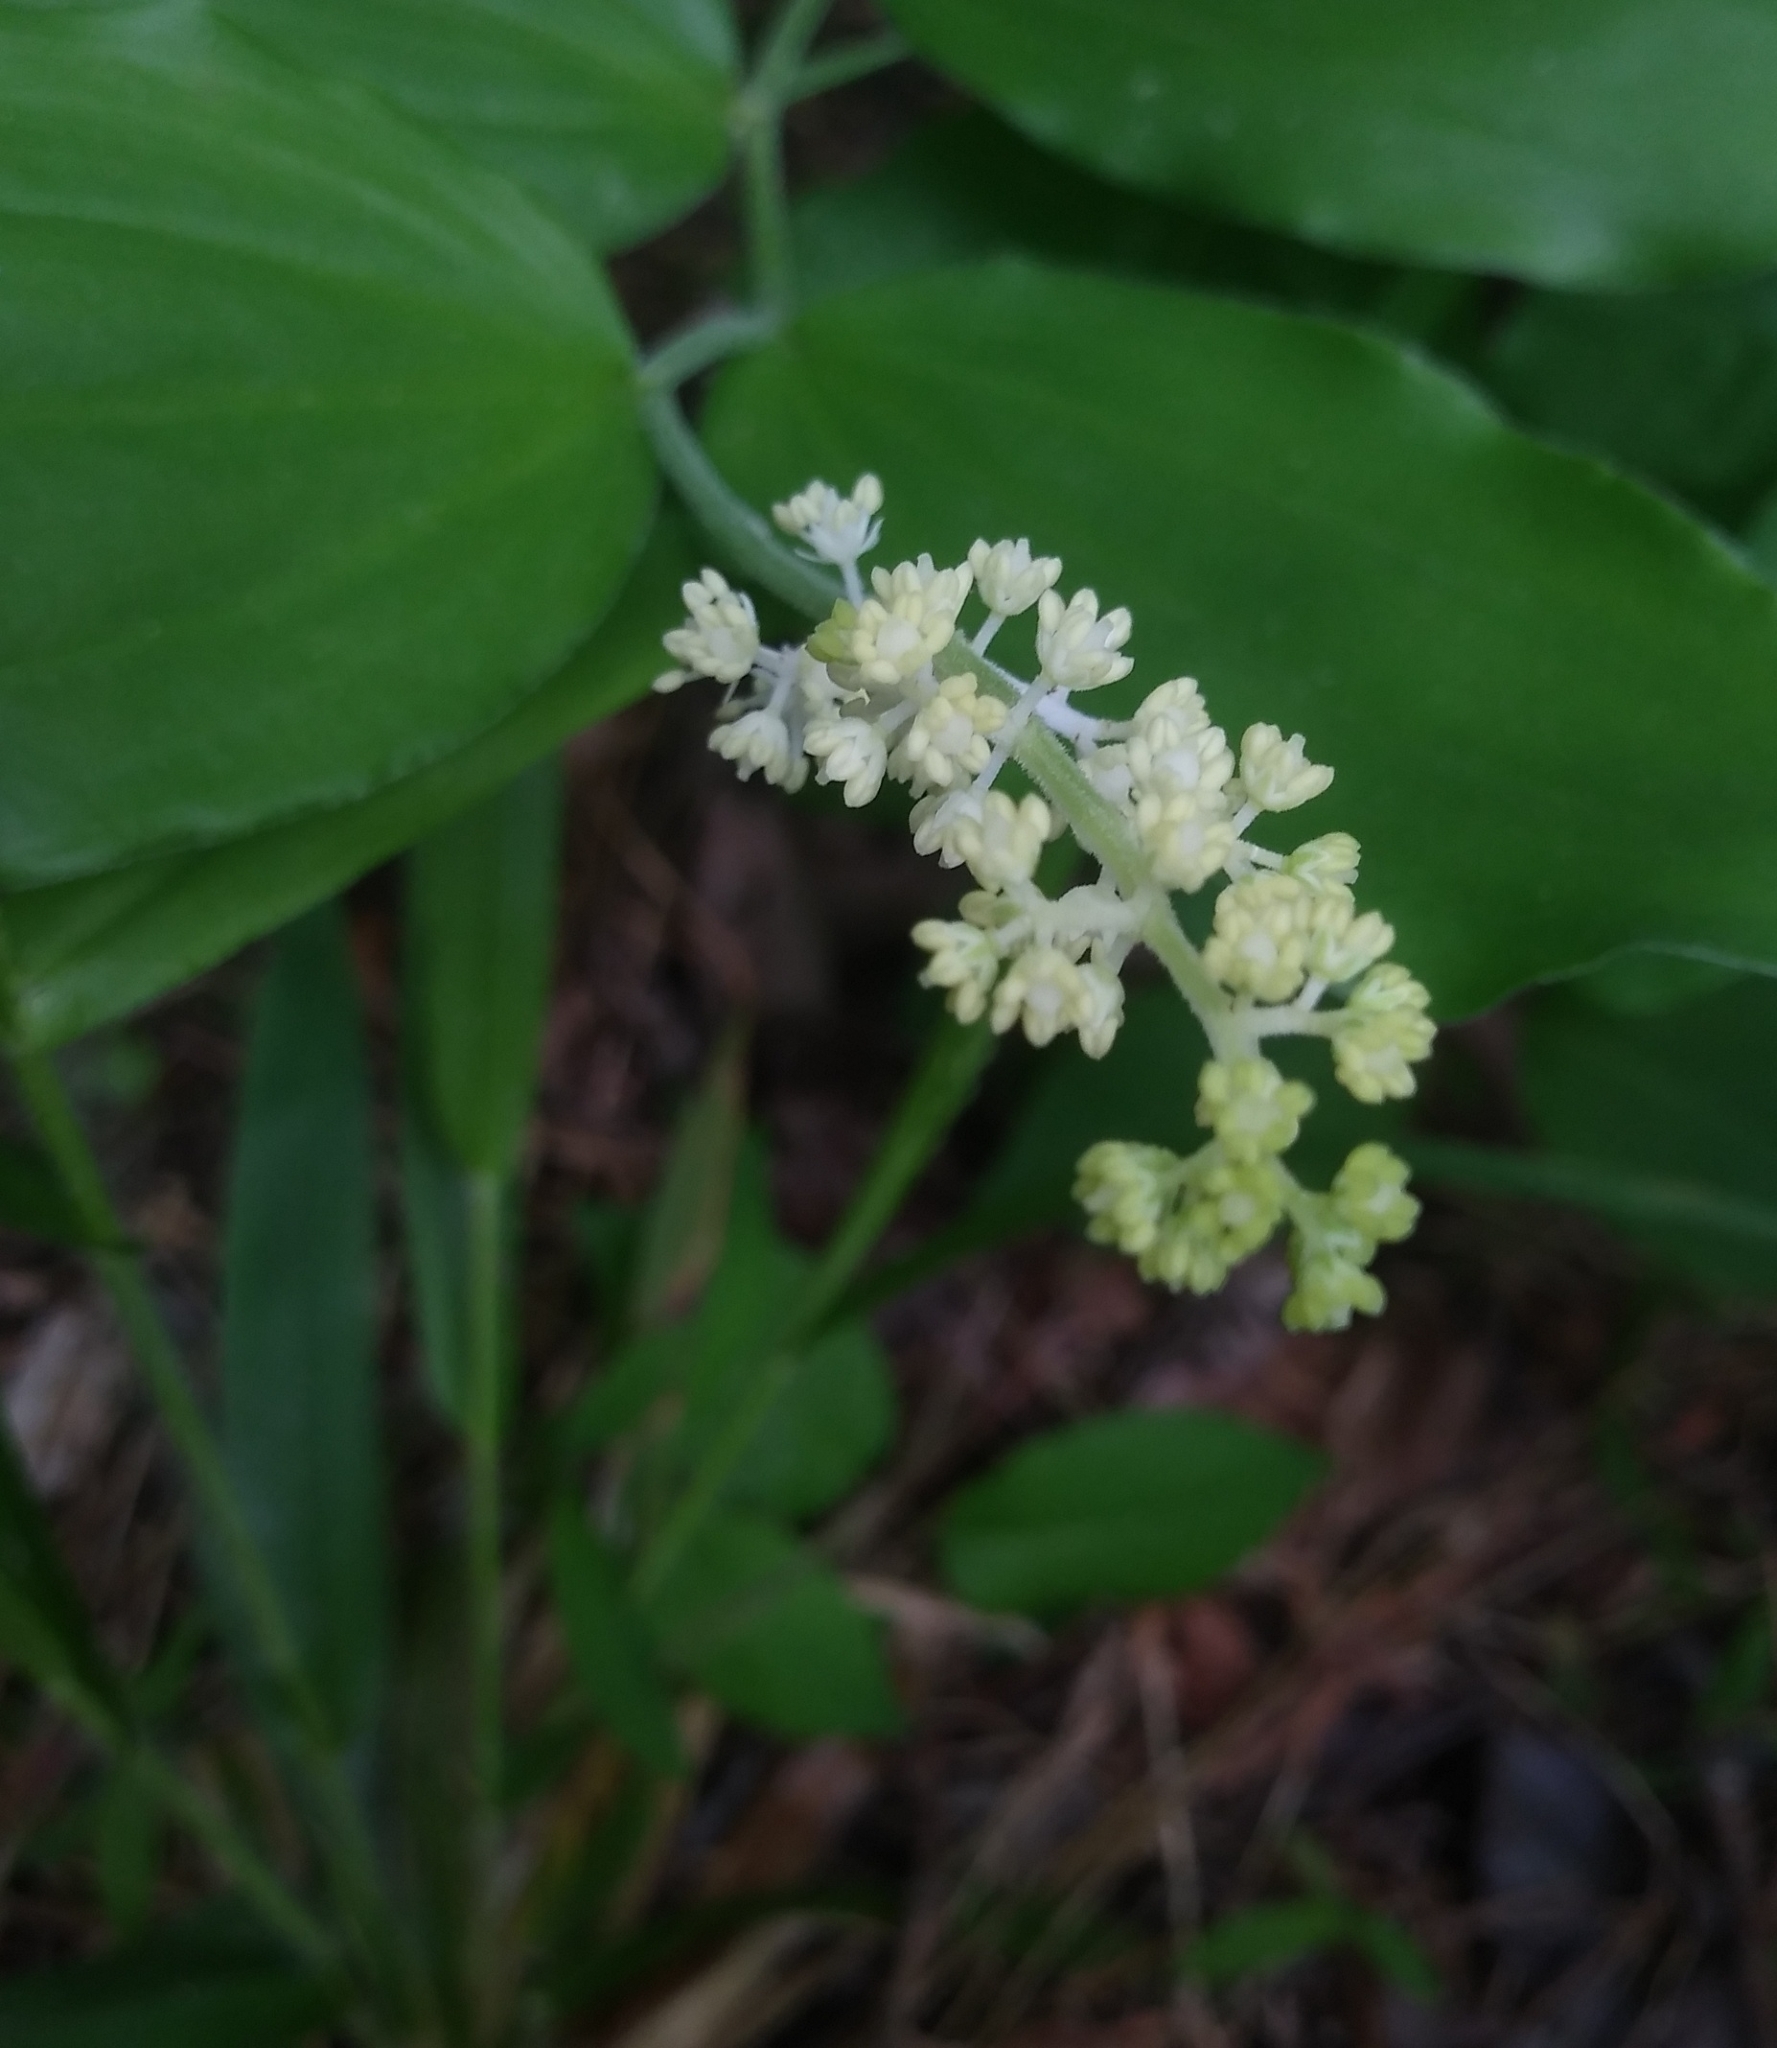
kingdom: Plantae
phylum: Tracheophyta
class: Liliopsida
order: Asparagales
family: Asparagaceae
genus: Maianthemum
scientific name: Maianthemum racemosum
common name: False spikenard
